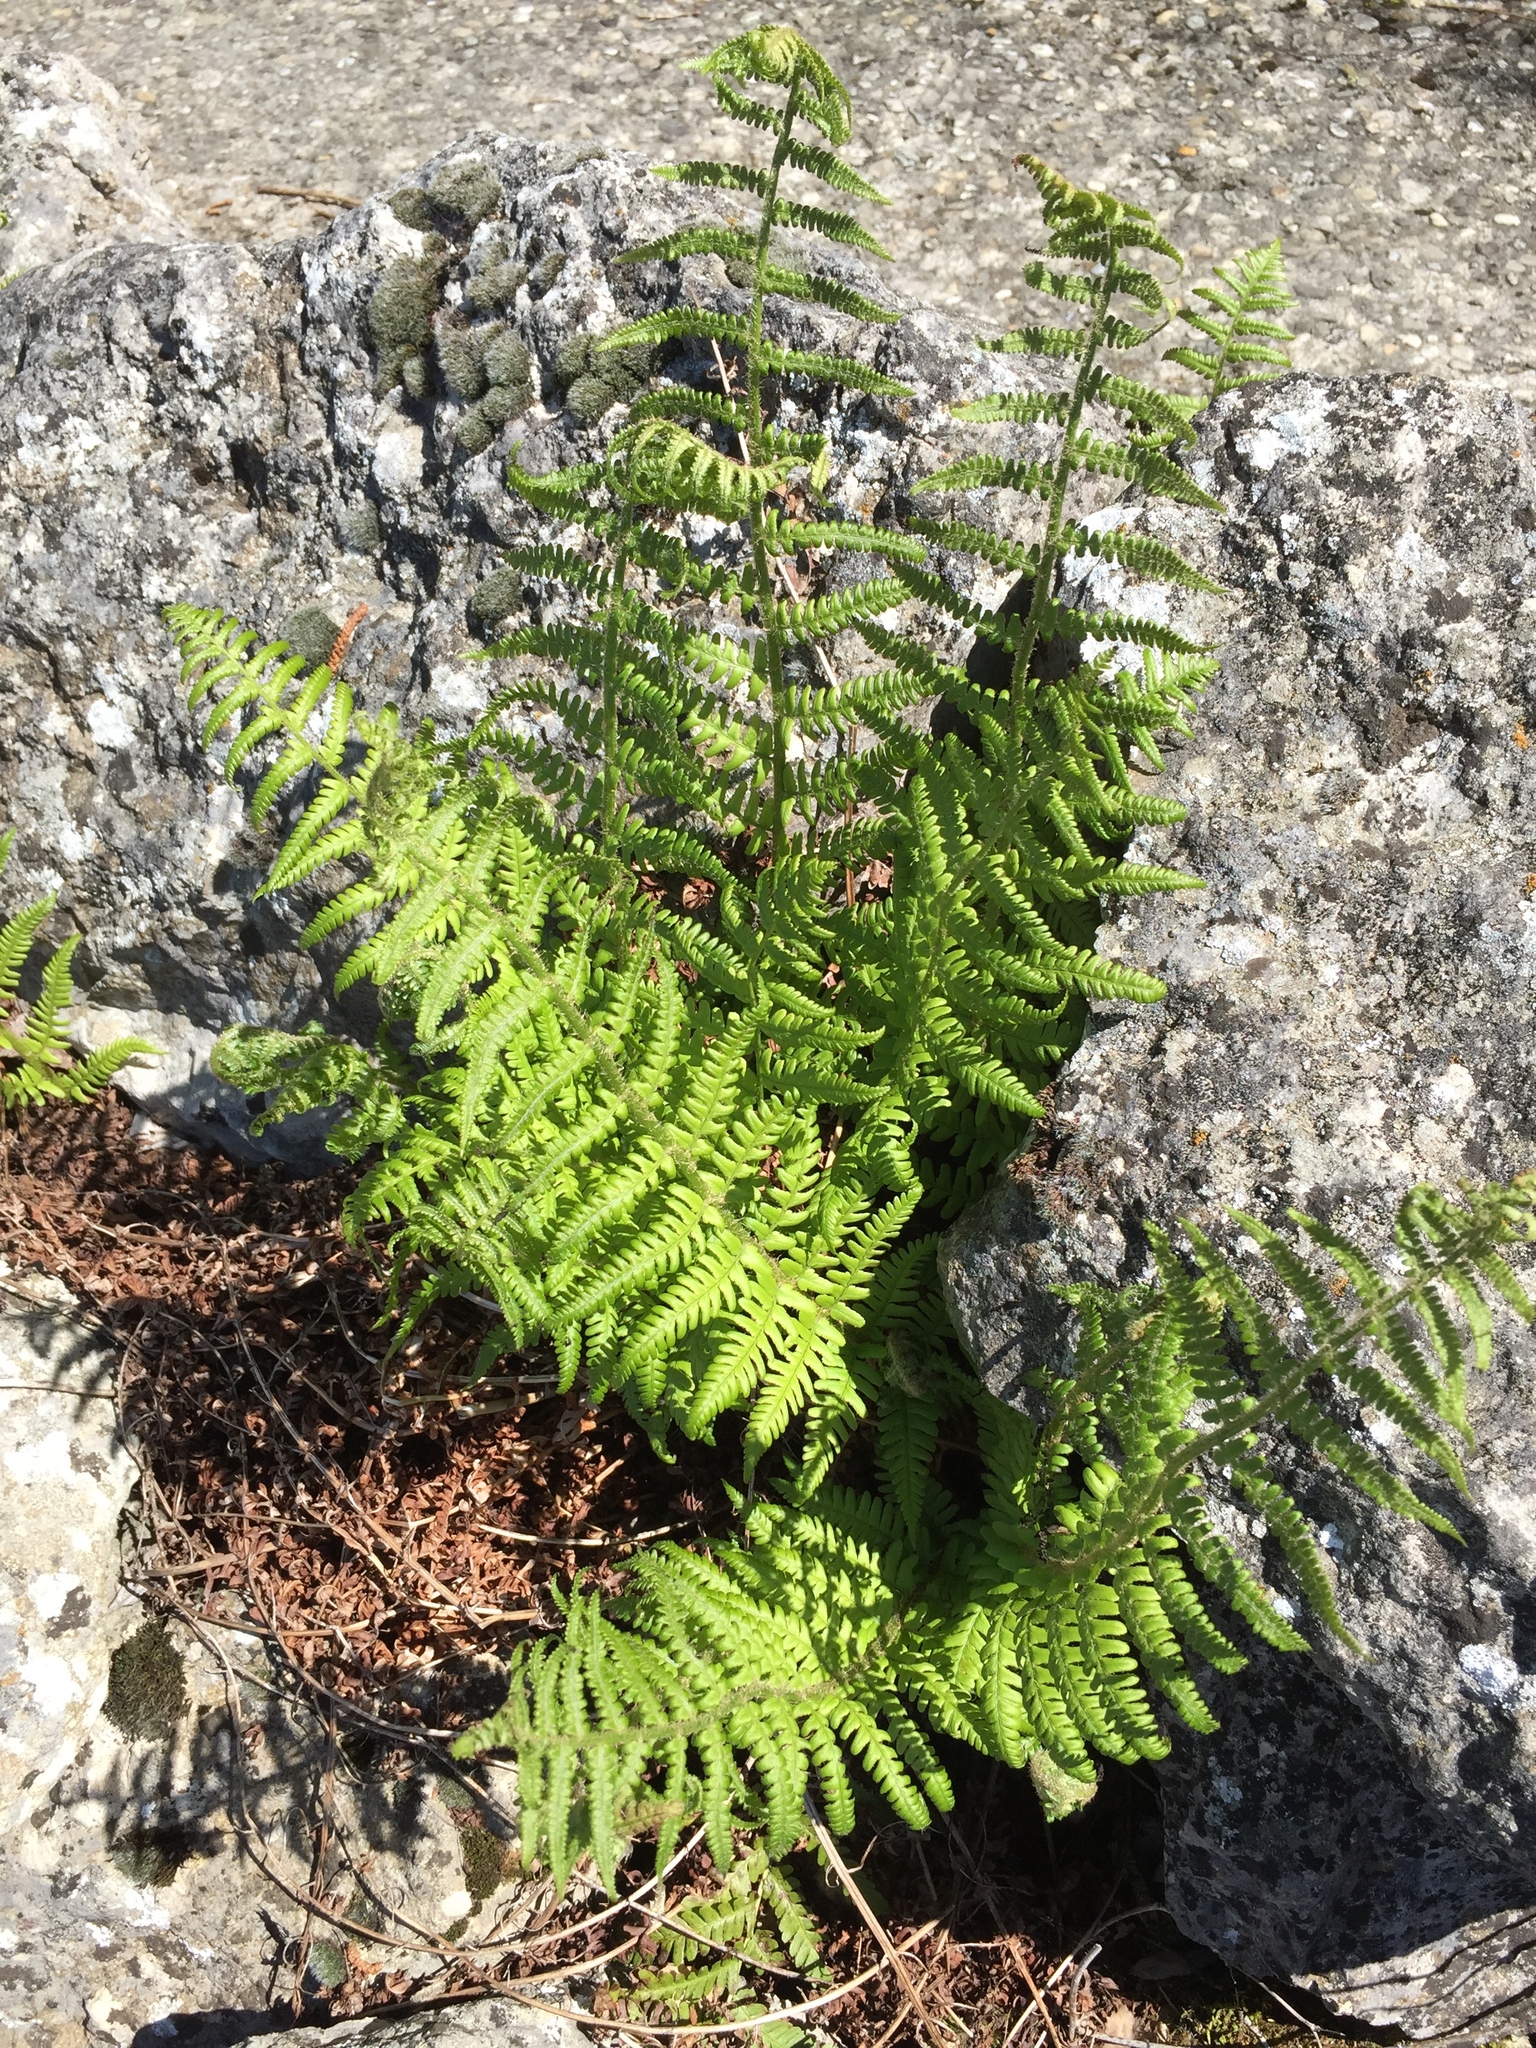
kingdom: Plantae
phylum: Tracheophyta
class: Polypodiopsida
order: Polypodiales
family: Dryopteridaceae
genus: Dryopteris
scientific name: Dryopteris filix-mas
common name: Male fern
